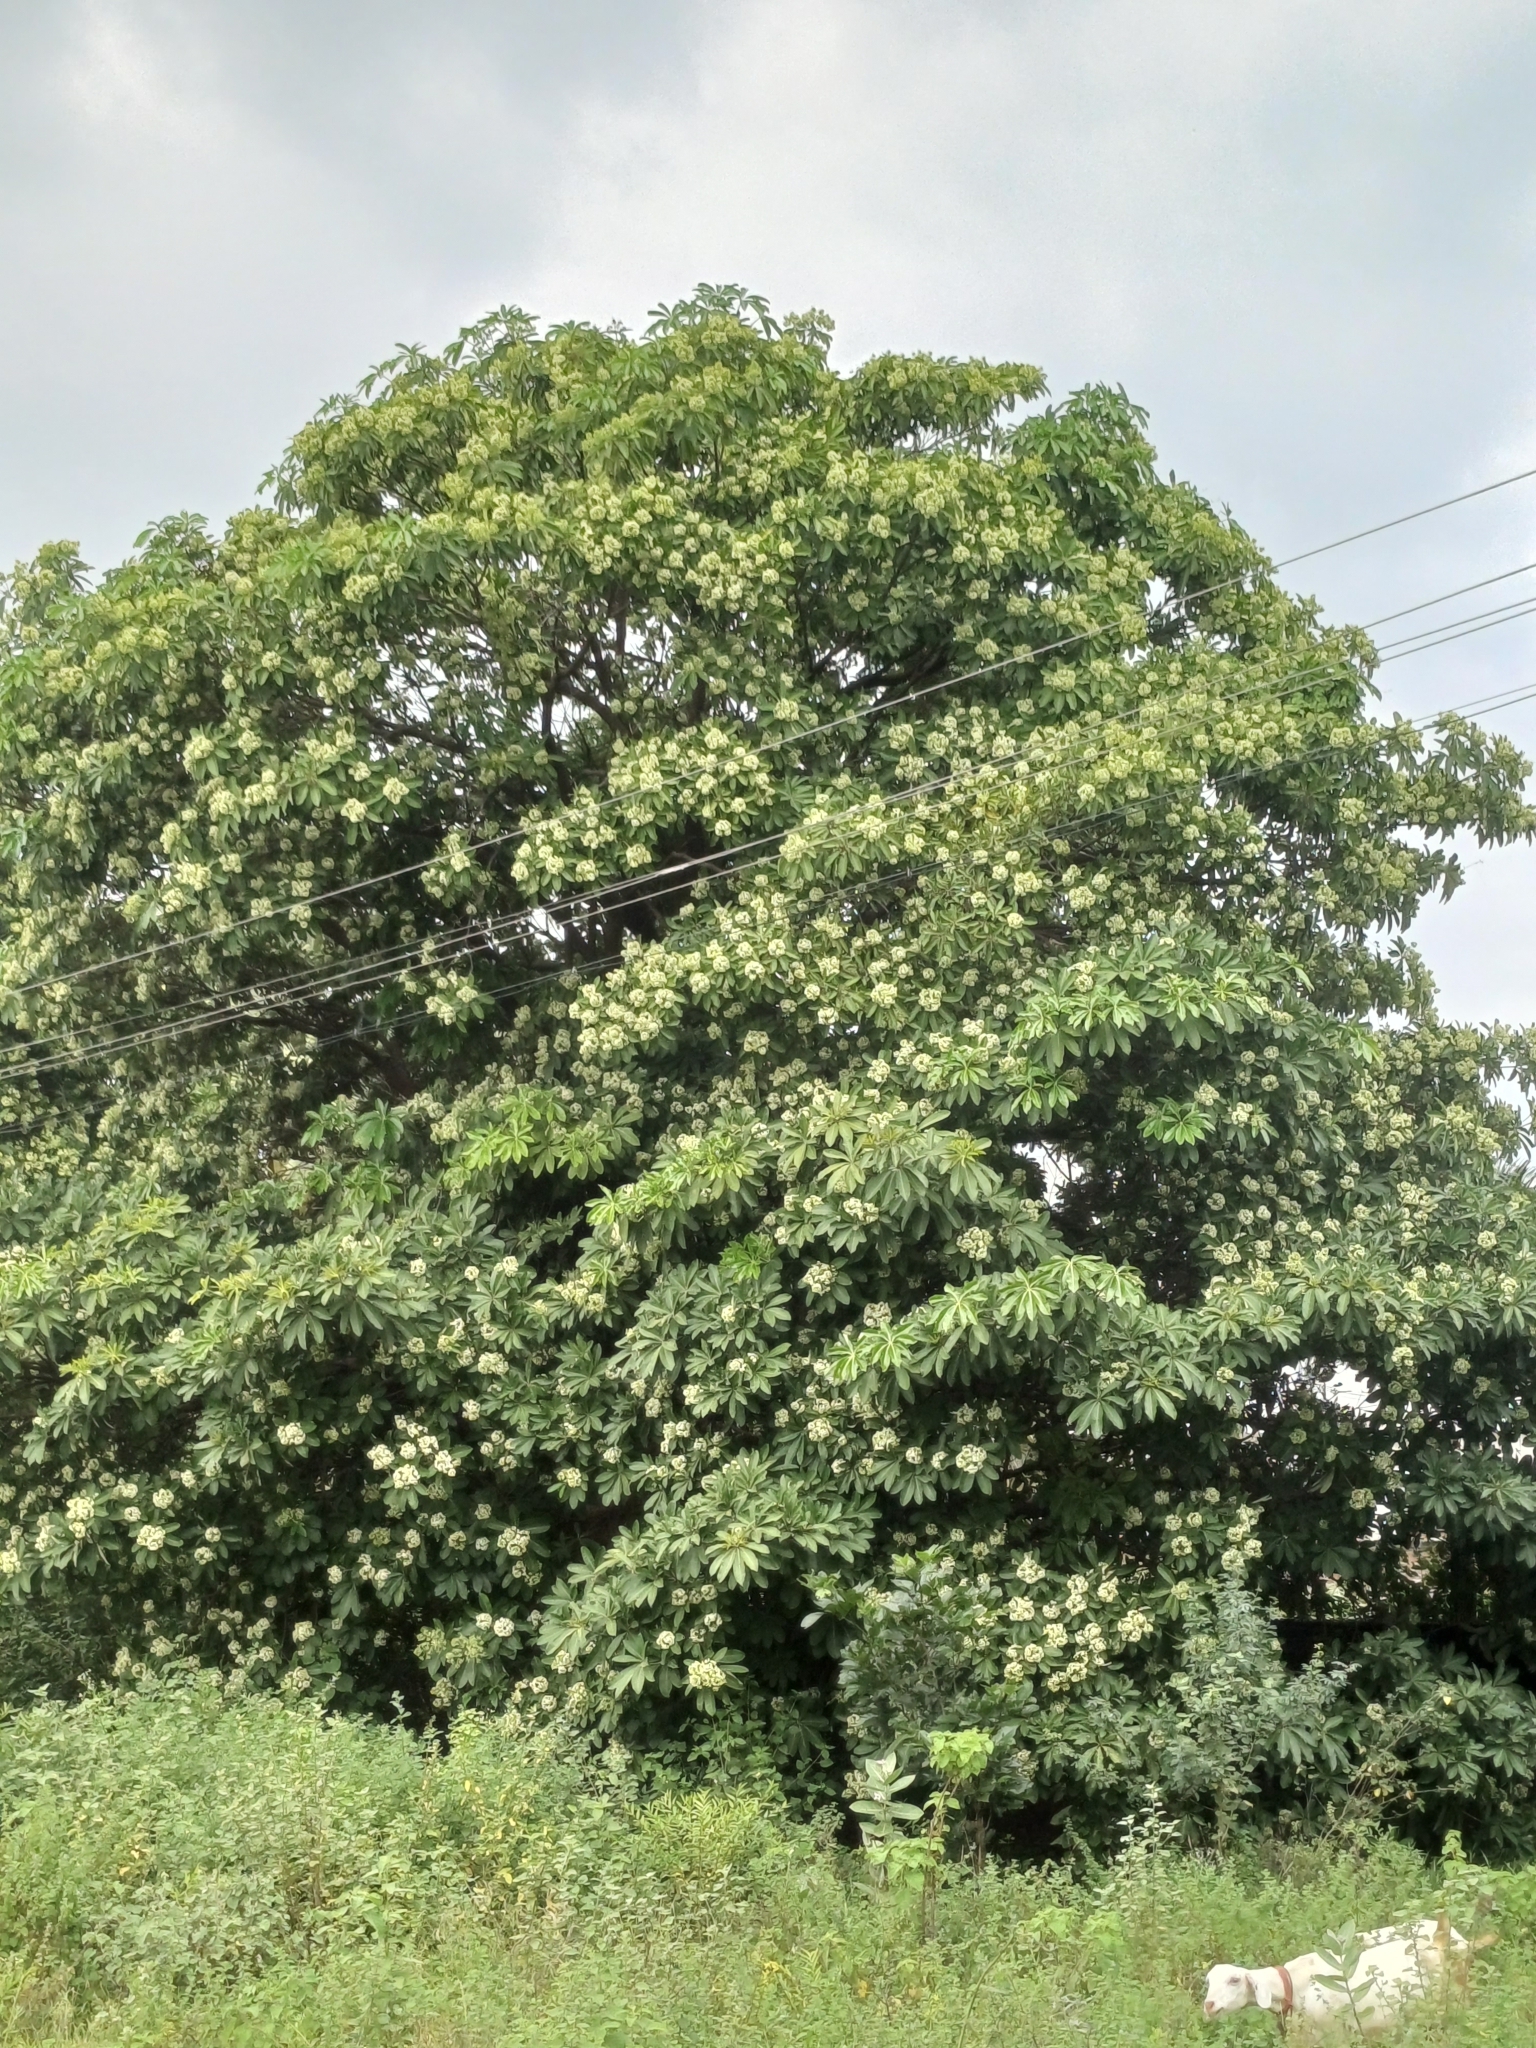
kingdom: Plantae
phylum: Tracheophyta
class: Magnoliopsida
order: Gentianales
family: Apocynaceae
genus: Alstonia
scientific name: Alstonia scholaris
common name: White cheesewood
